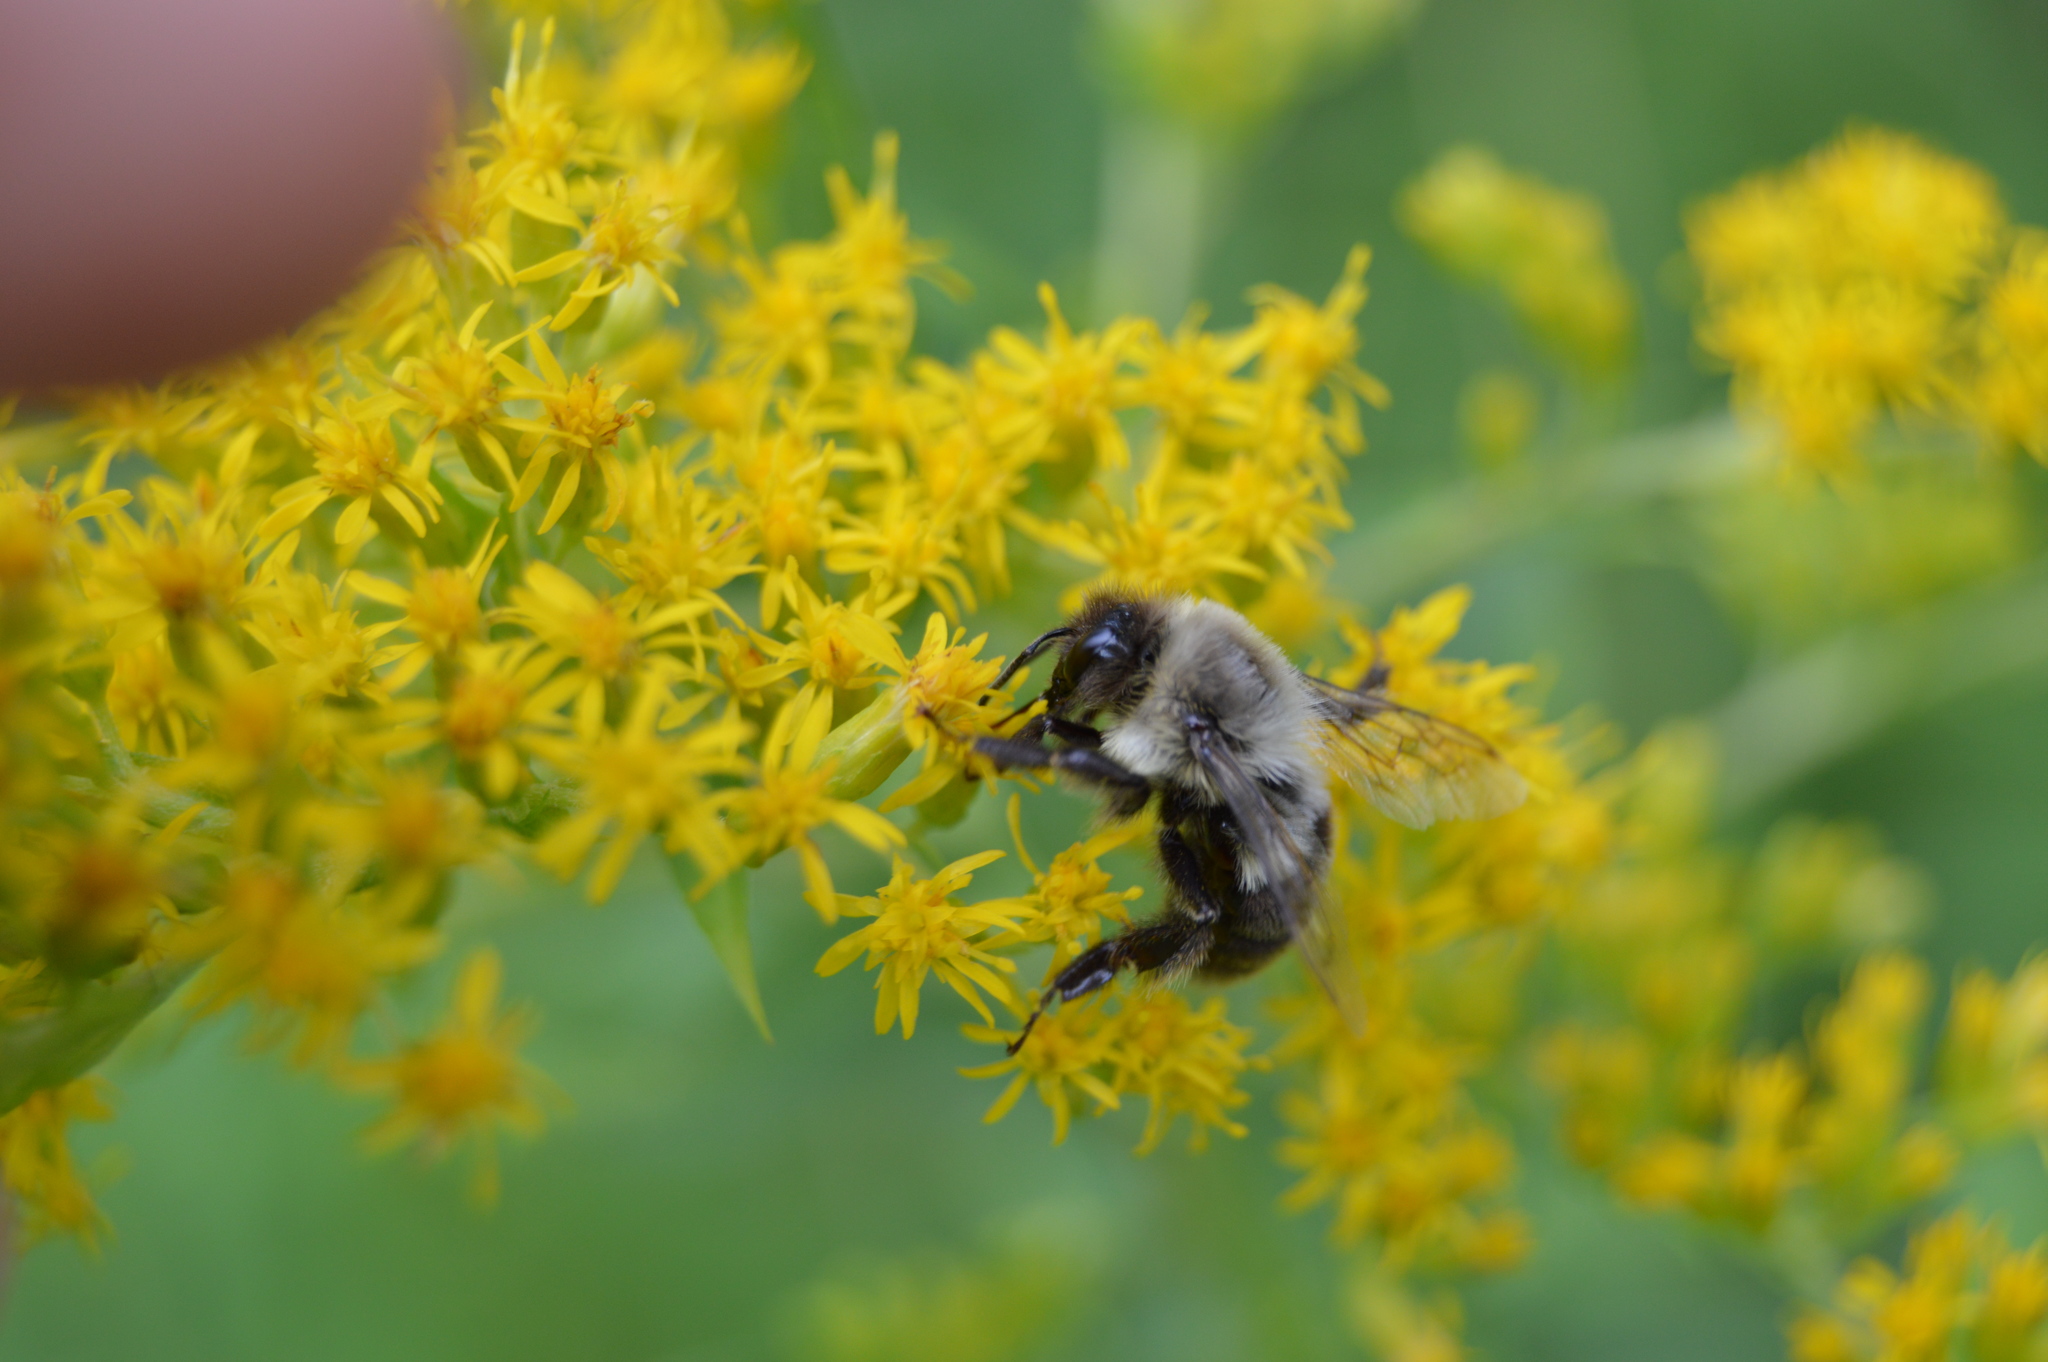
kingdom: Animalia
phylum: Arthropoda
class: Insecta
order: Hymenoptera
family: Apidae
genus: Bombus
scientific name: Bombus impatiens
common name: Common eastern bumble bee
